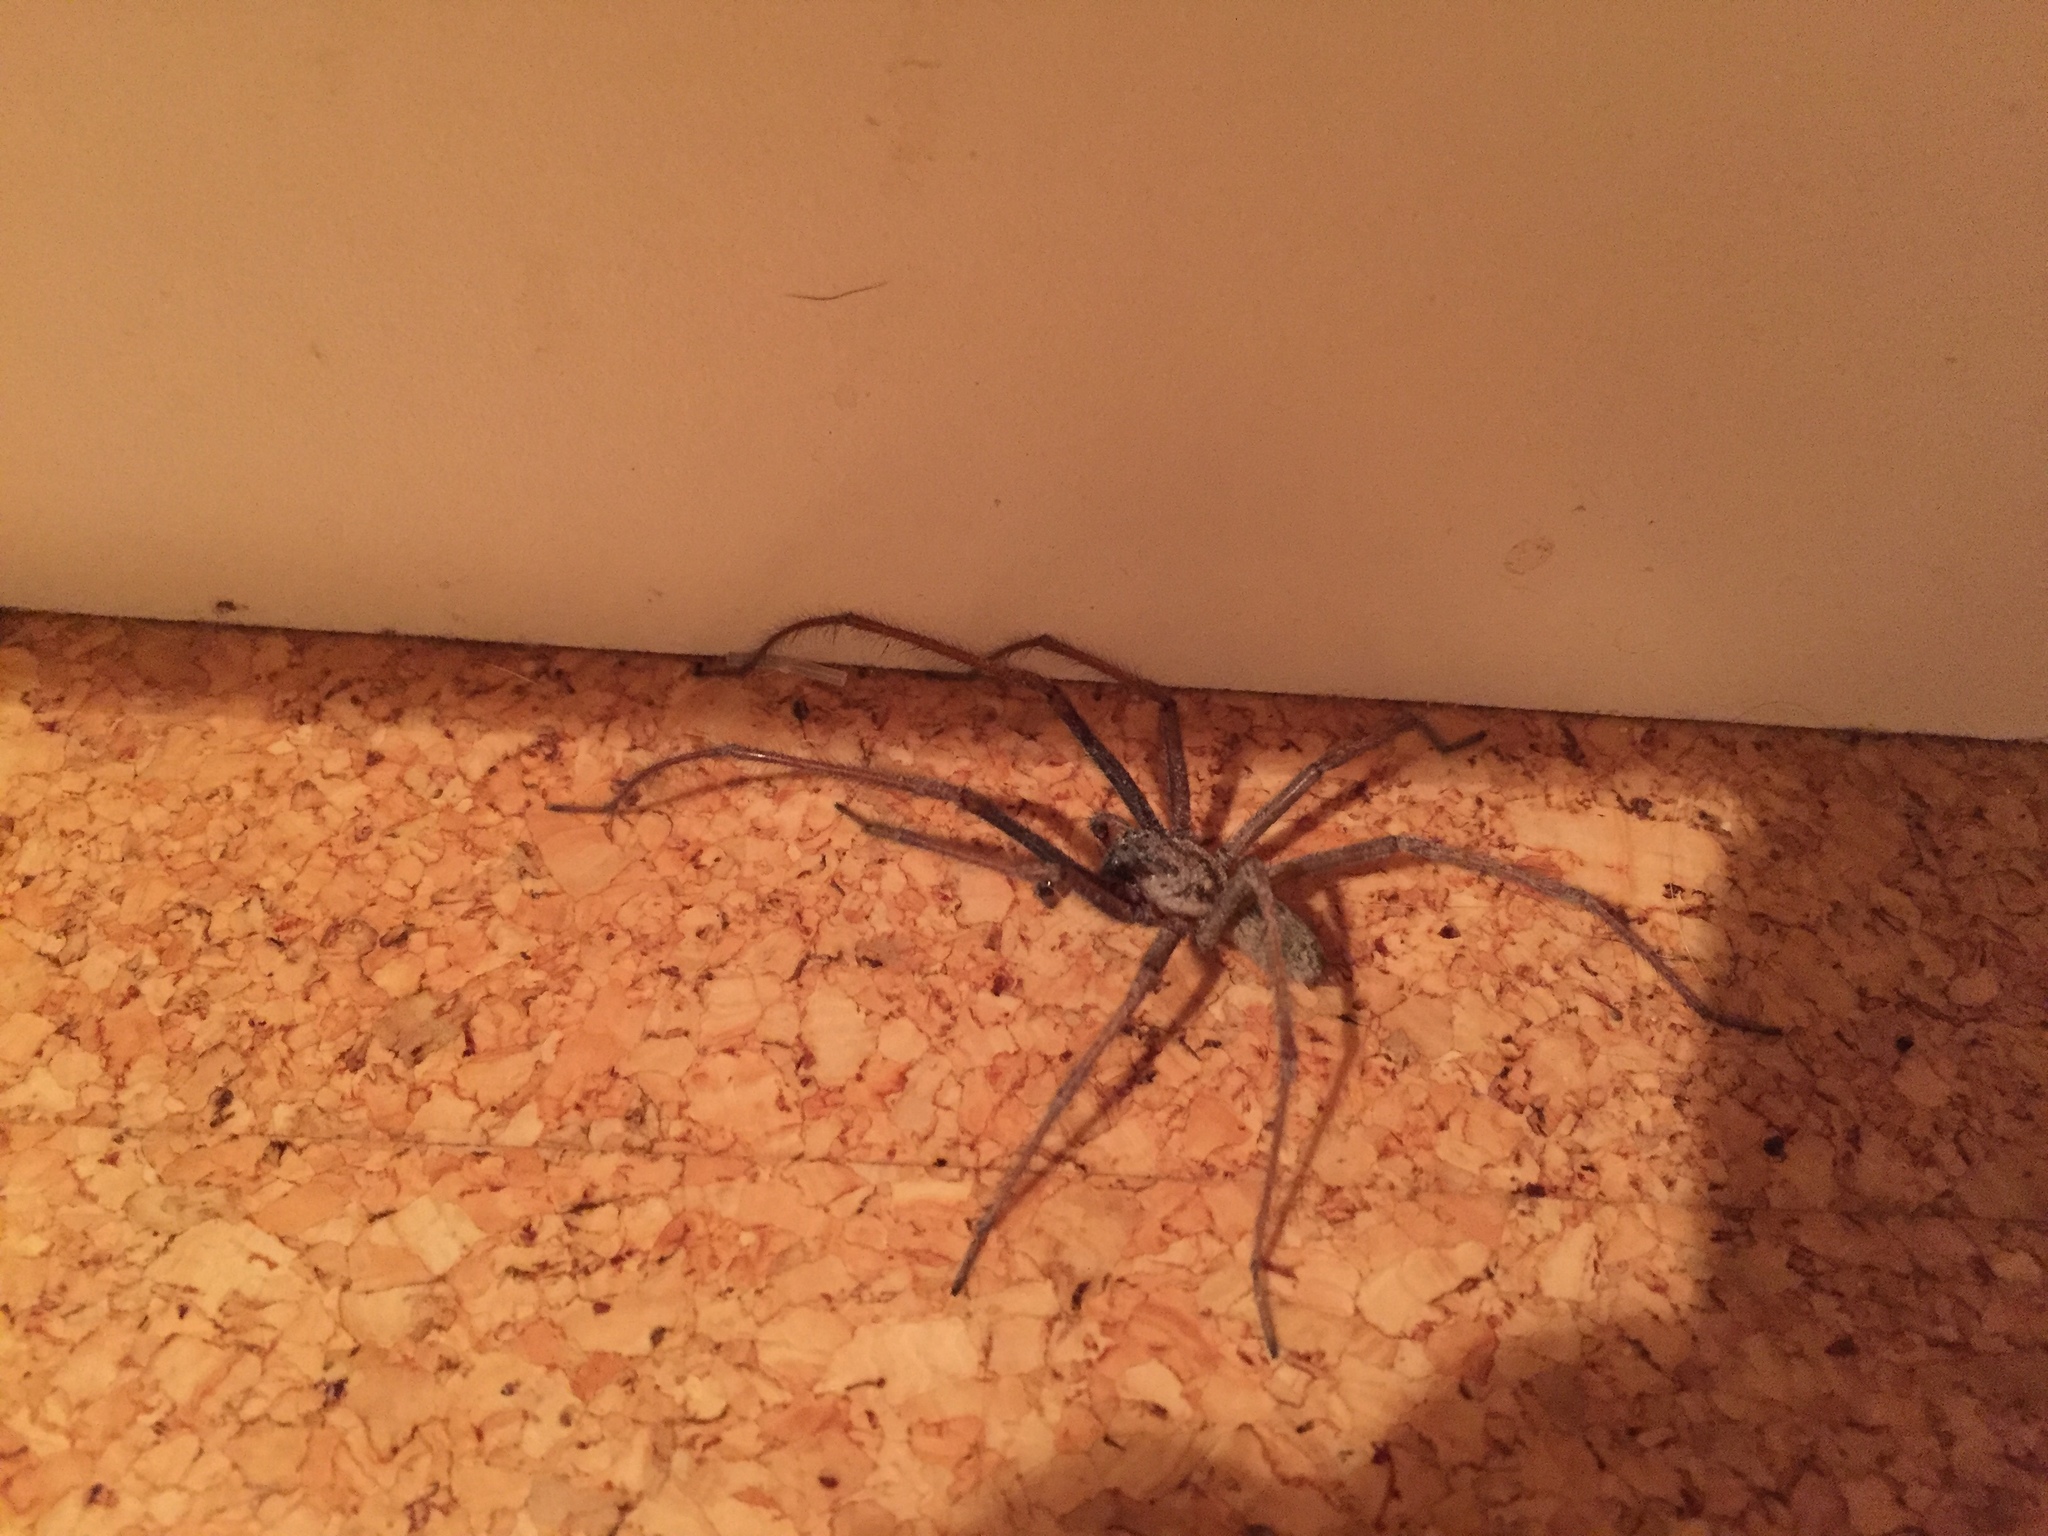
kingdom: Animalia
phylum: Arthropoda
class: Arachnida
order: Araneae
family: Agelenidae
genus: Eratigena
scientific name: Eratigena duellica
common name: Giant house spider
